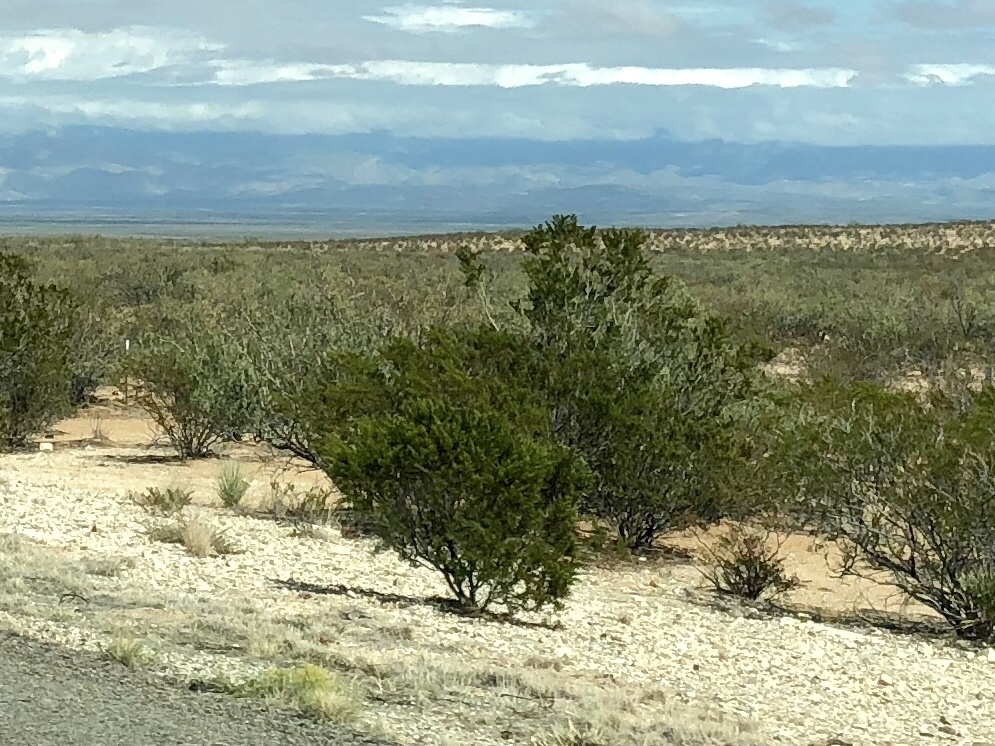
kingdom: Plantae
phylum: Tracheophyta
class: Magnoliopsida
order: Zygophyllales
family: Zygophyllaceae
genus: Larrea
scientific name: Larrea tridentata
